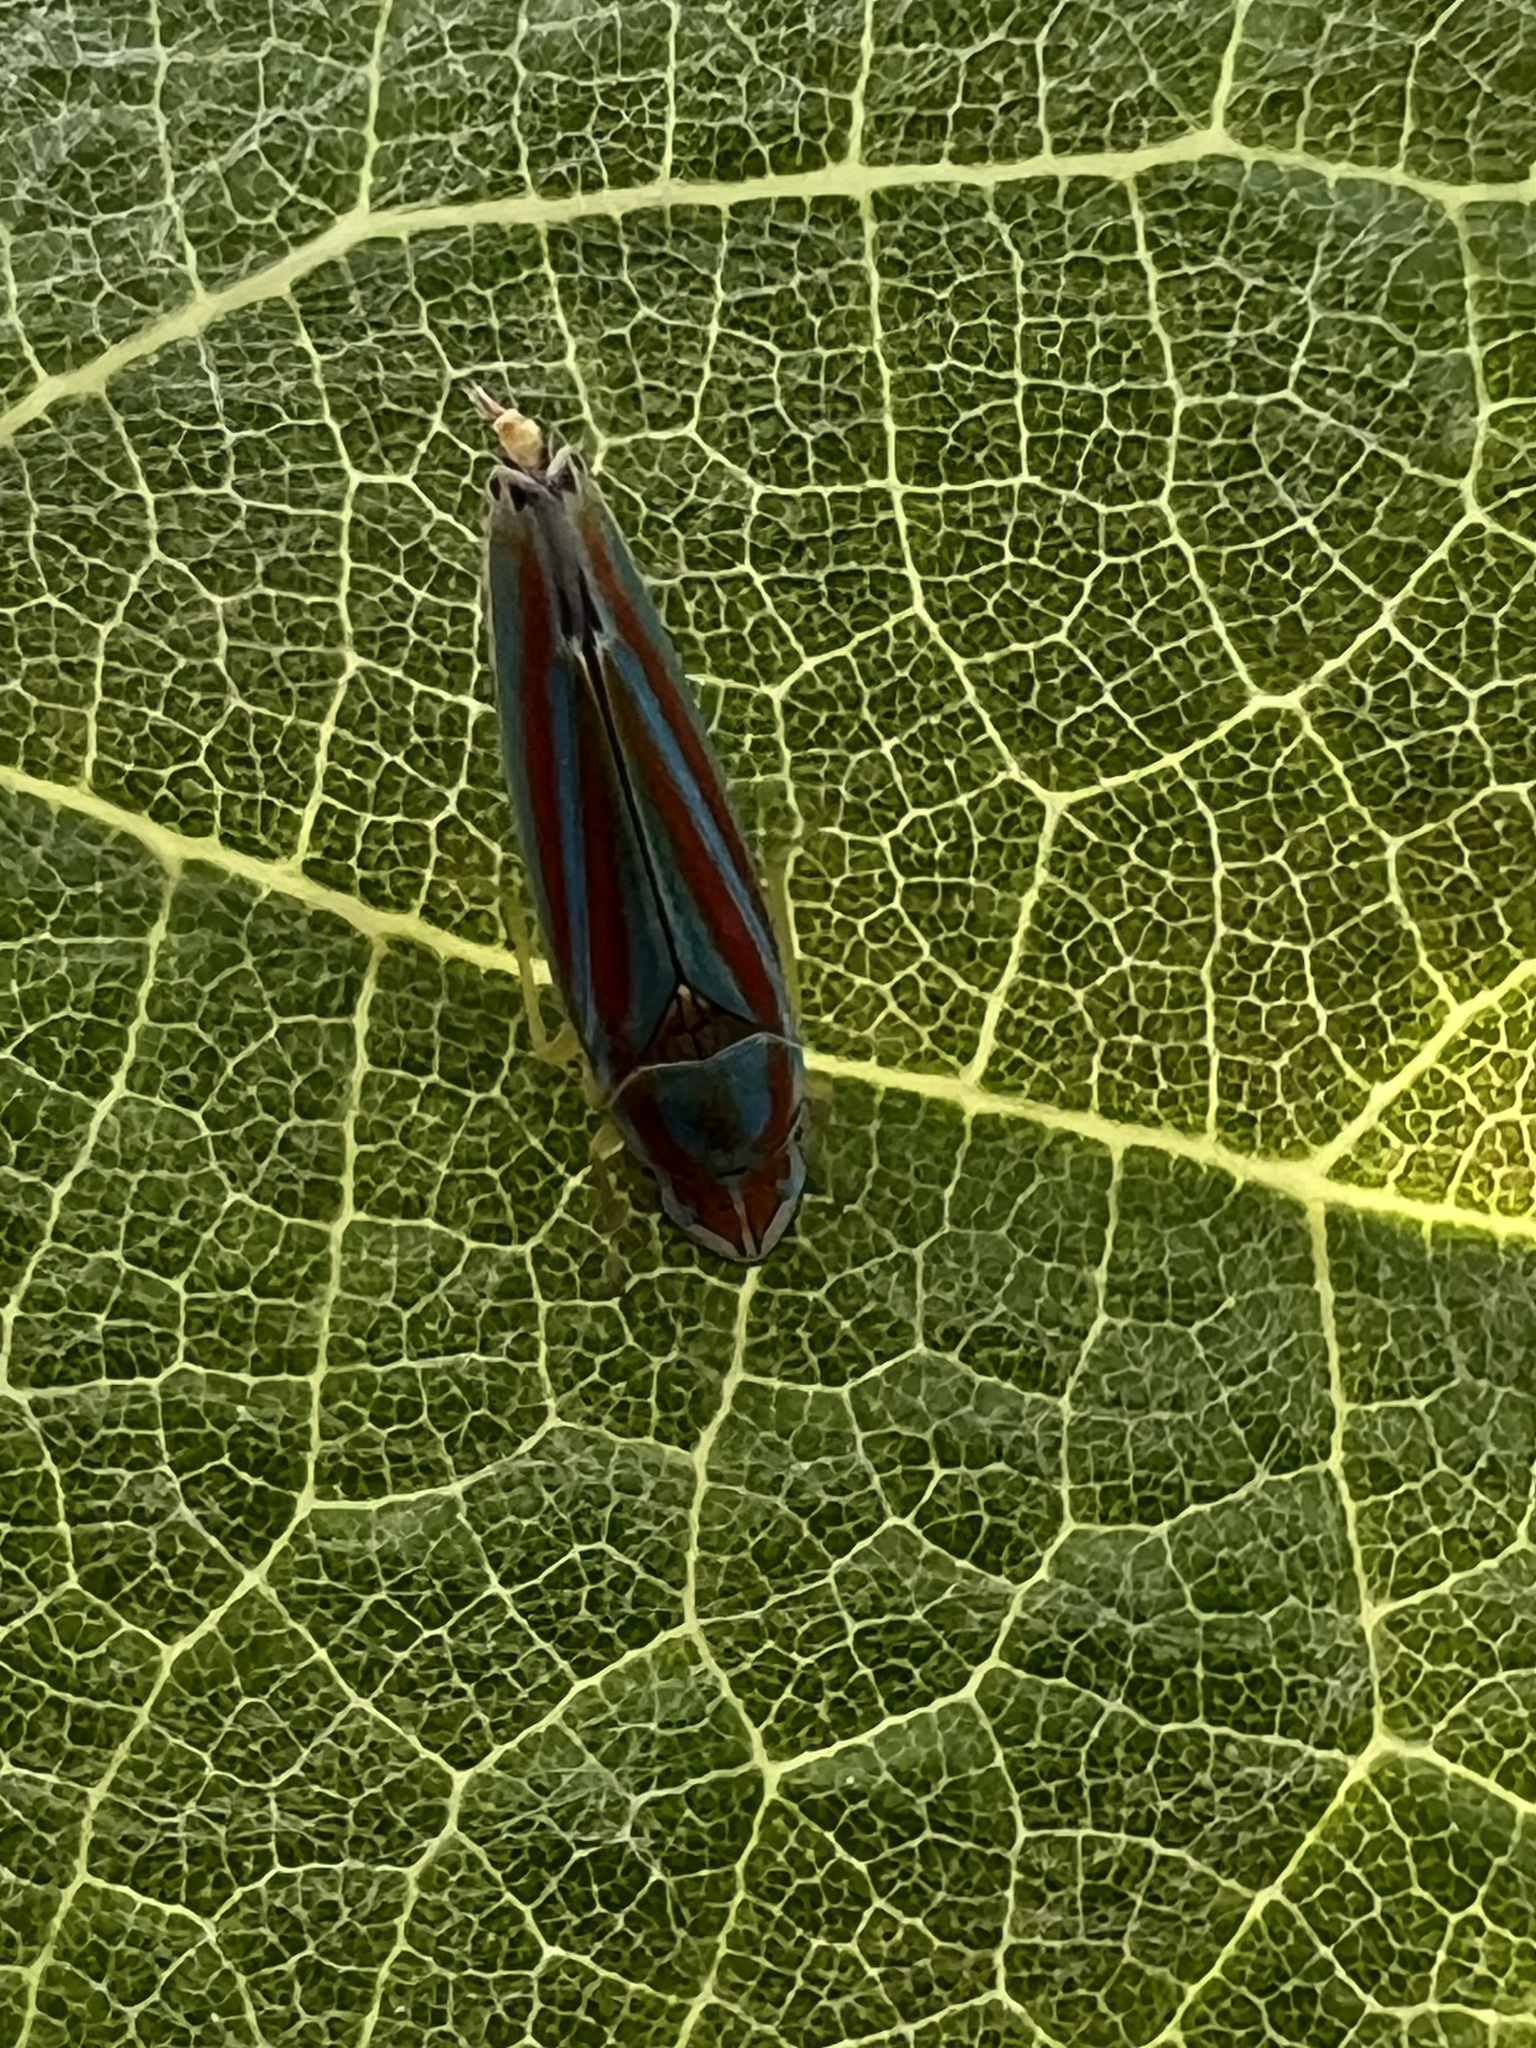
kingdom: Animalia
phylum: Arthropoda
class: Insecta
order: Hemiptera
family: Cicadellidae
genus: Graphocephala
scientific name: Graphocephala versuta
